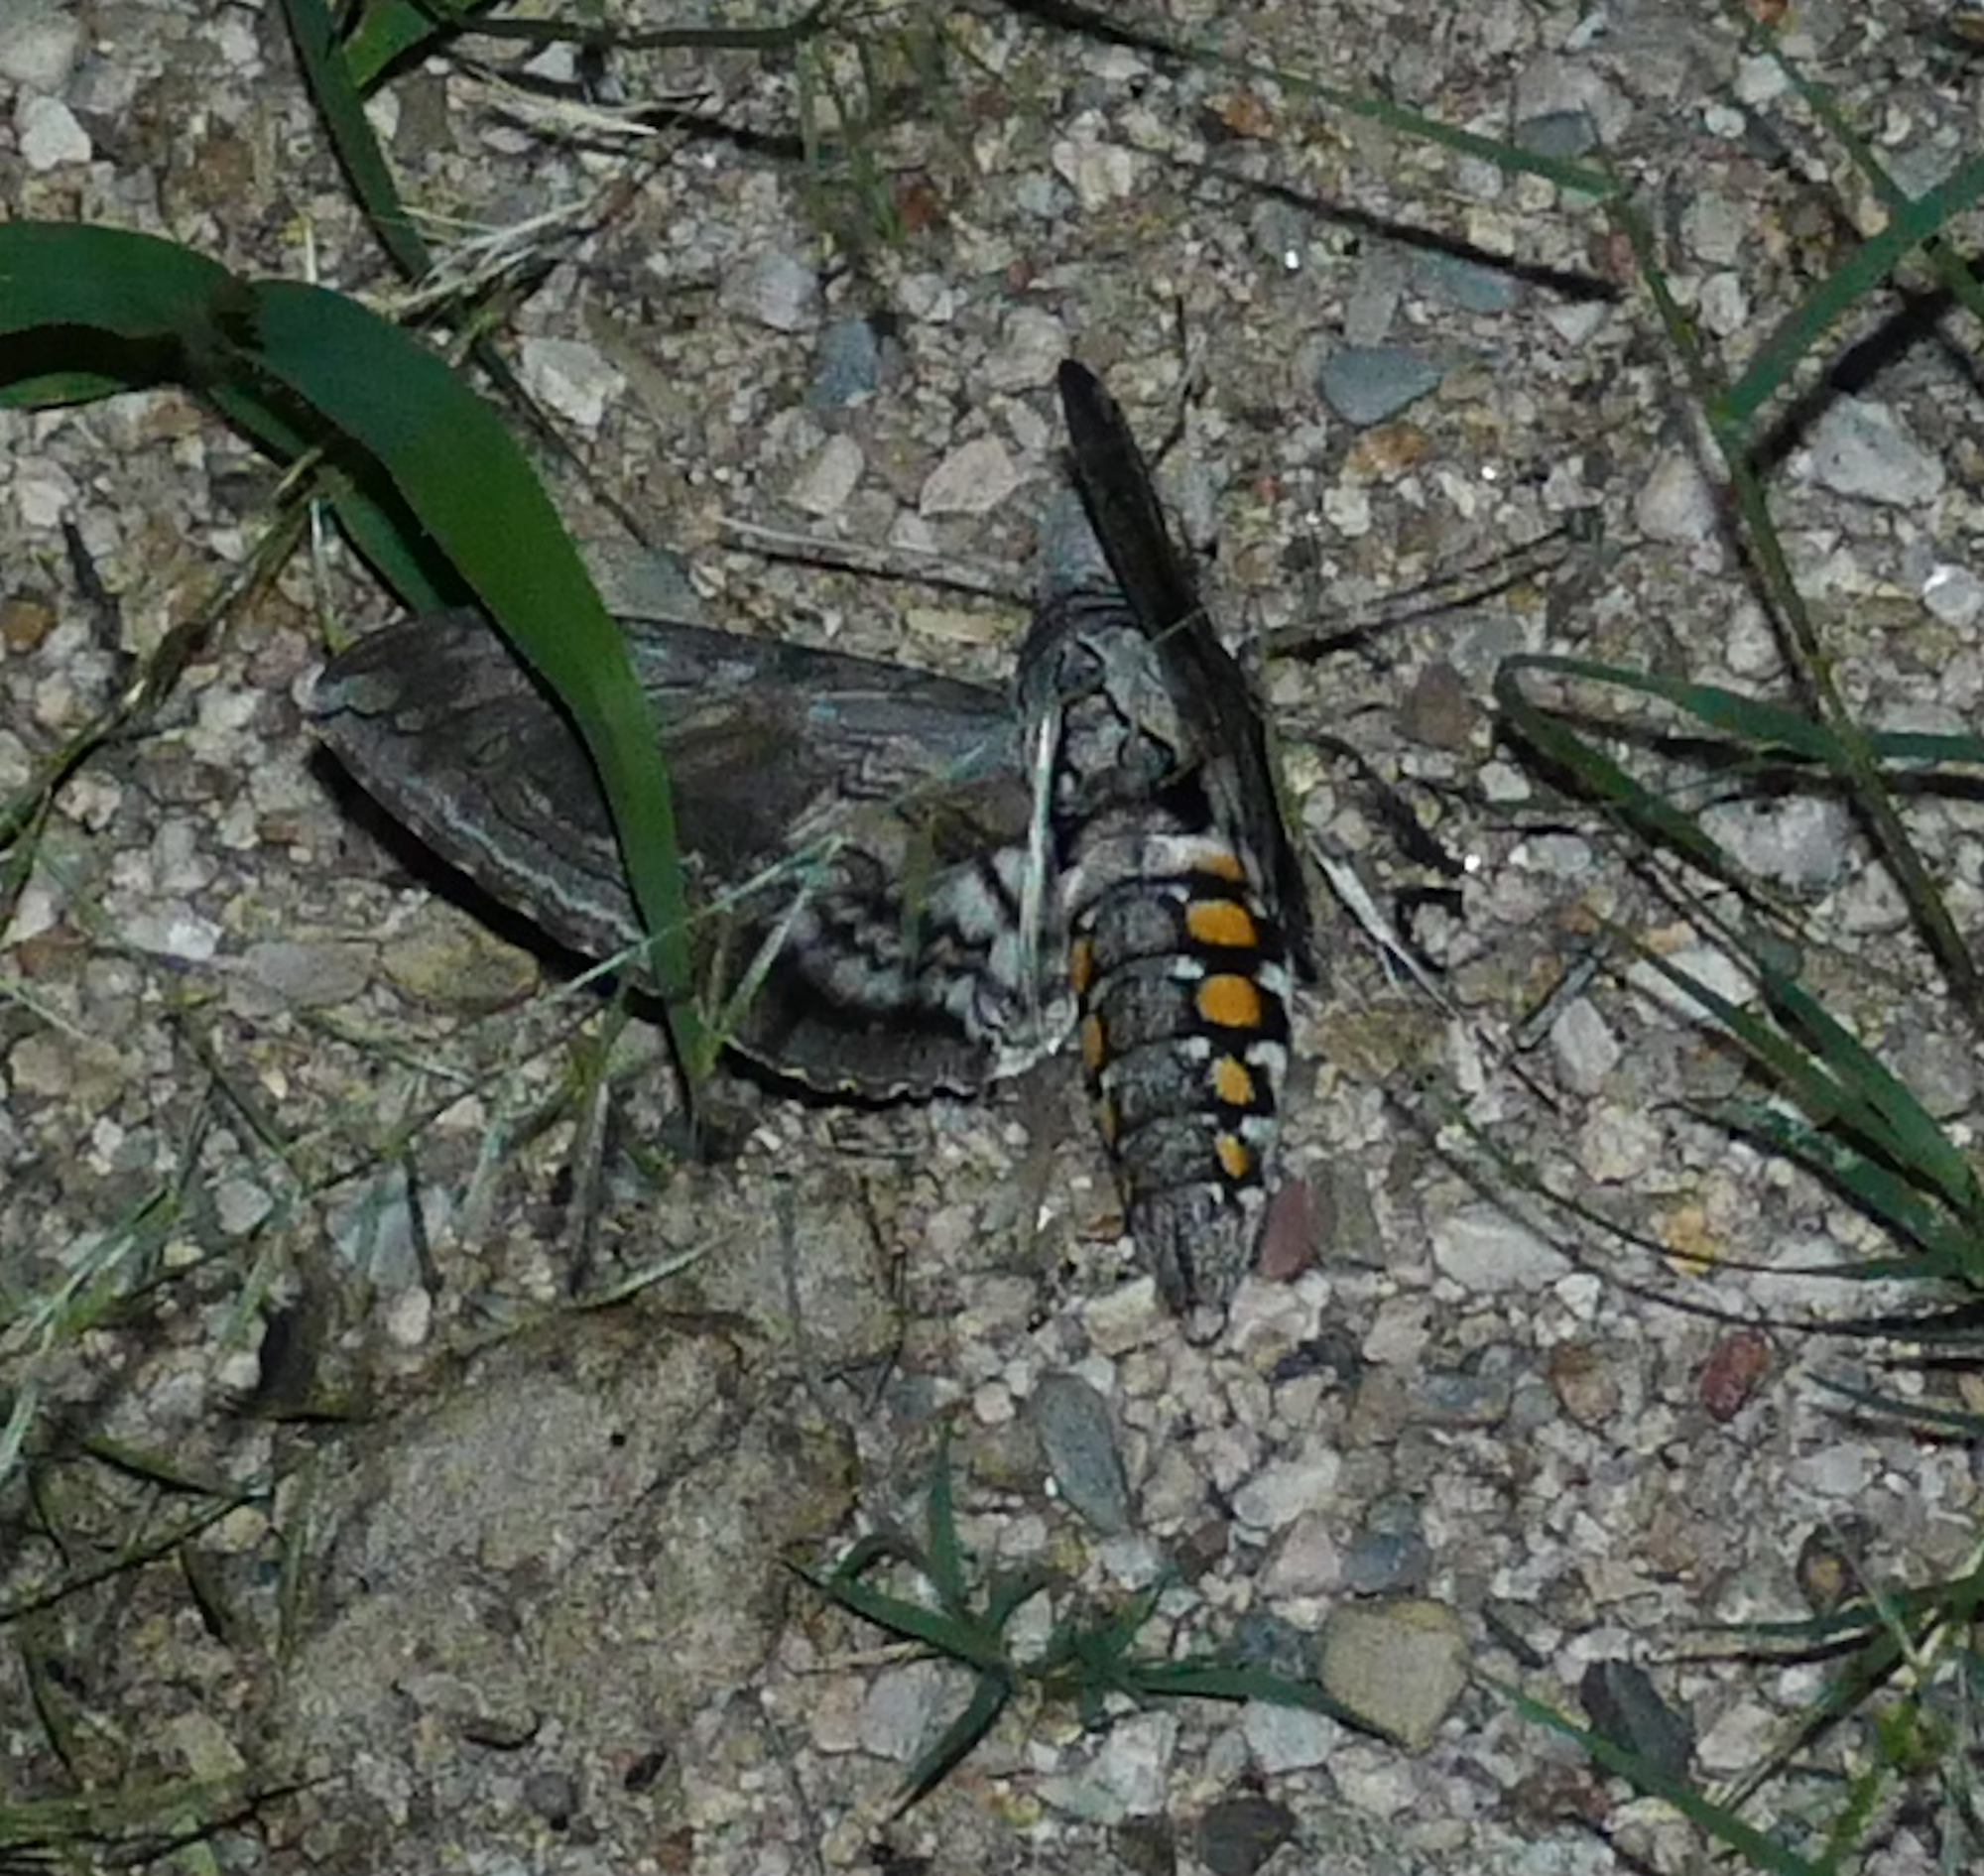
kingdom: Animalia
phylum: Arthropoda
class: Insecta
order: Lepidoptera
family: Sphingidae
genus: Manduca
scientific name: Manduca quinquemaculatus
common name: Five-spotted hawk-moth
